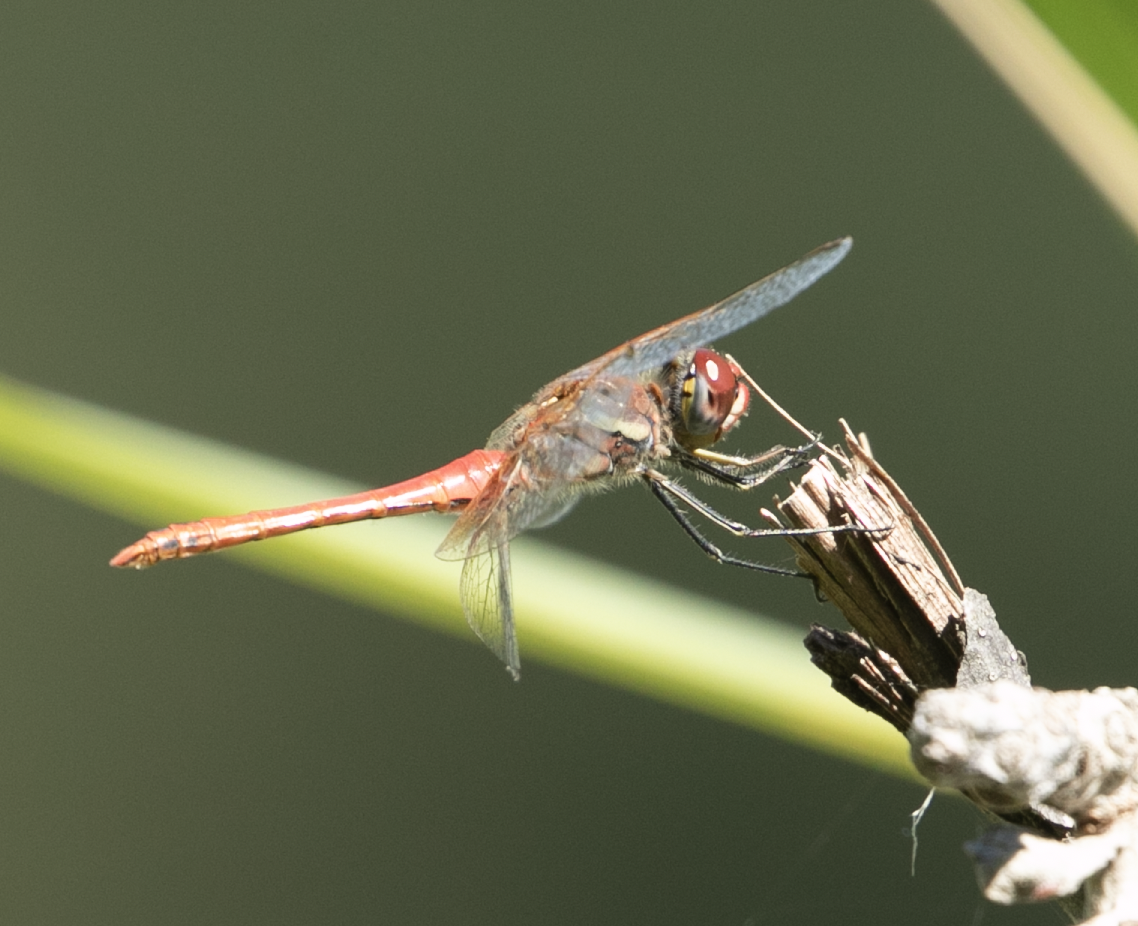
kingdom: Animalia
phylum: Arthropoda
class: Insecta
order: Odonata
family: Libellulidae
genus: Sympetrum
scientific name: Sympetrum fonscolombii
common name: Red-veined darter
